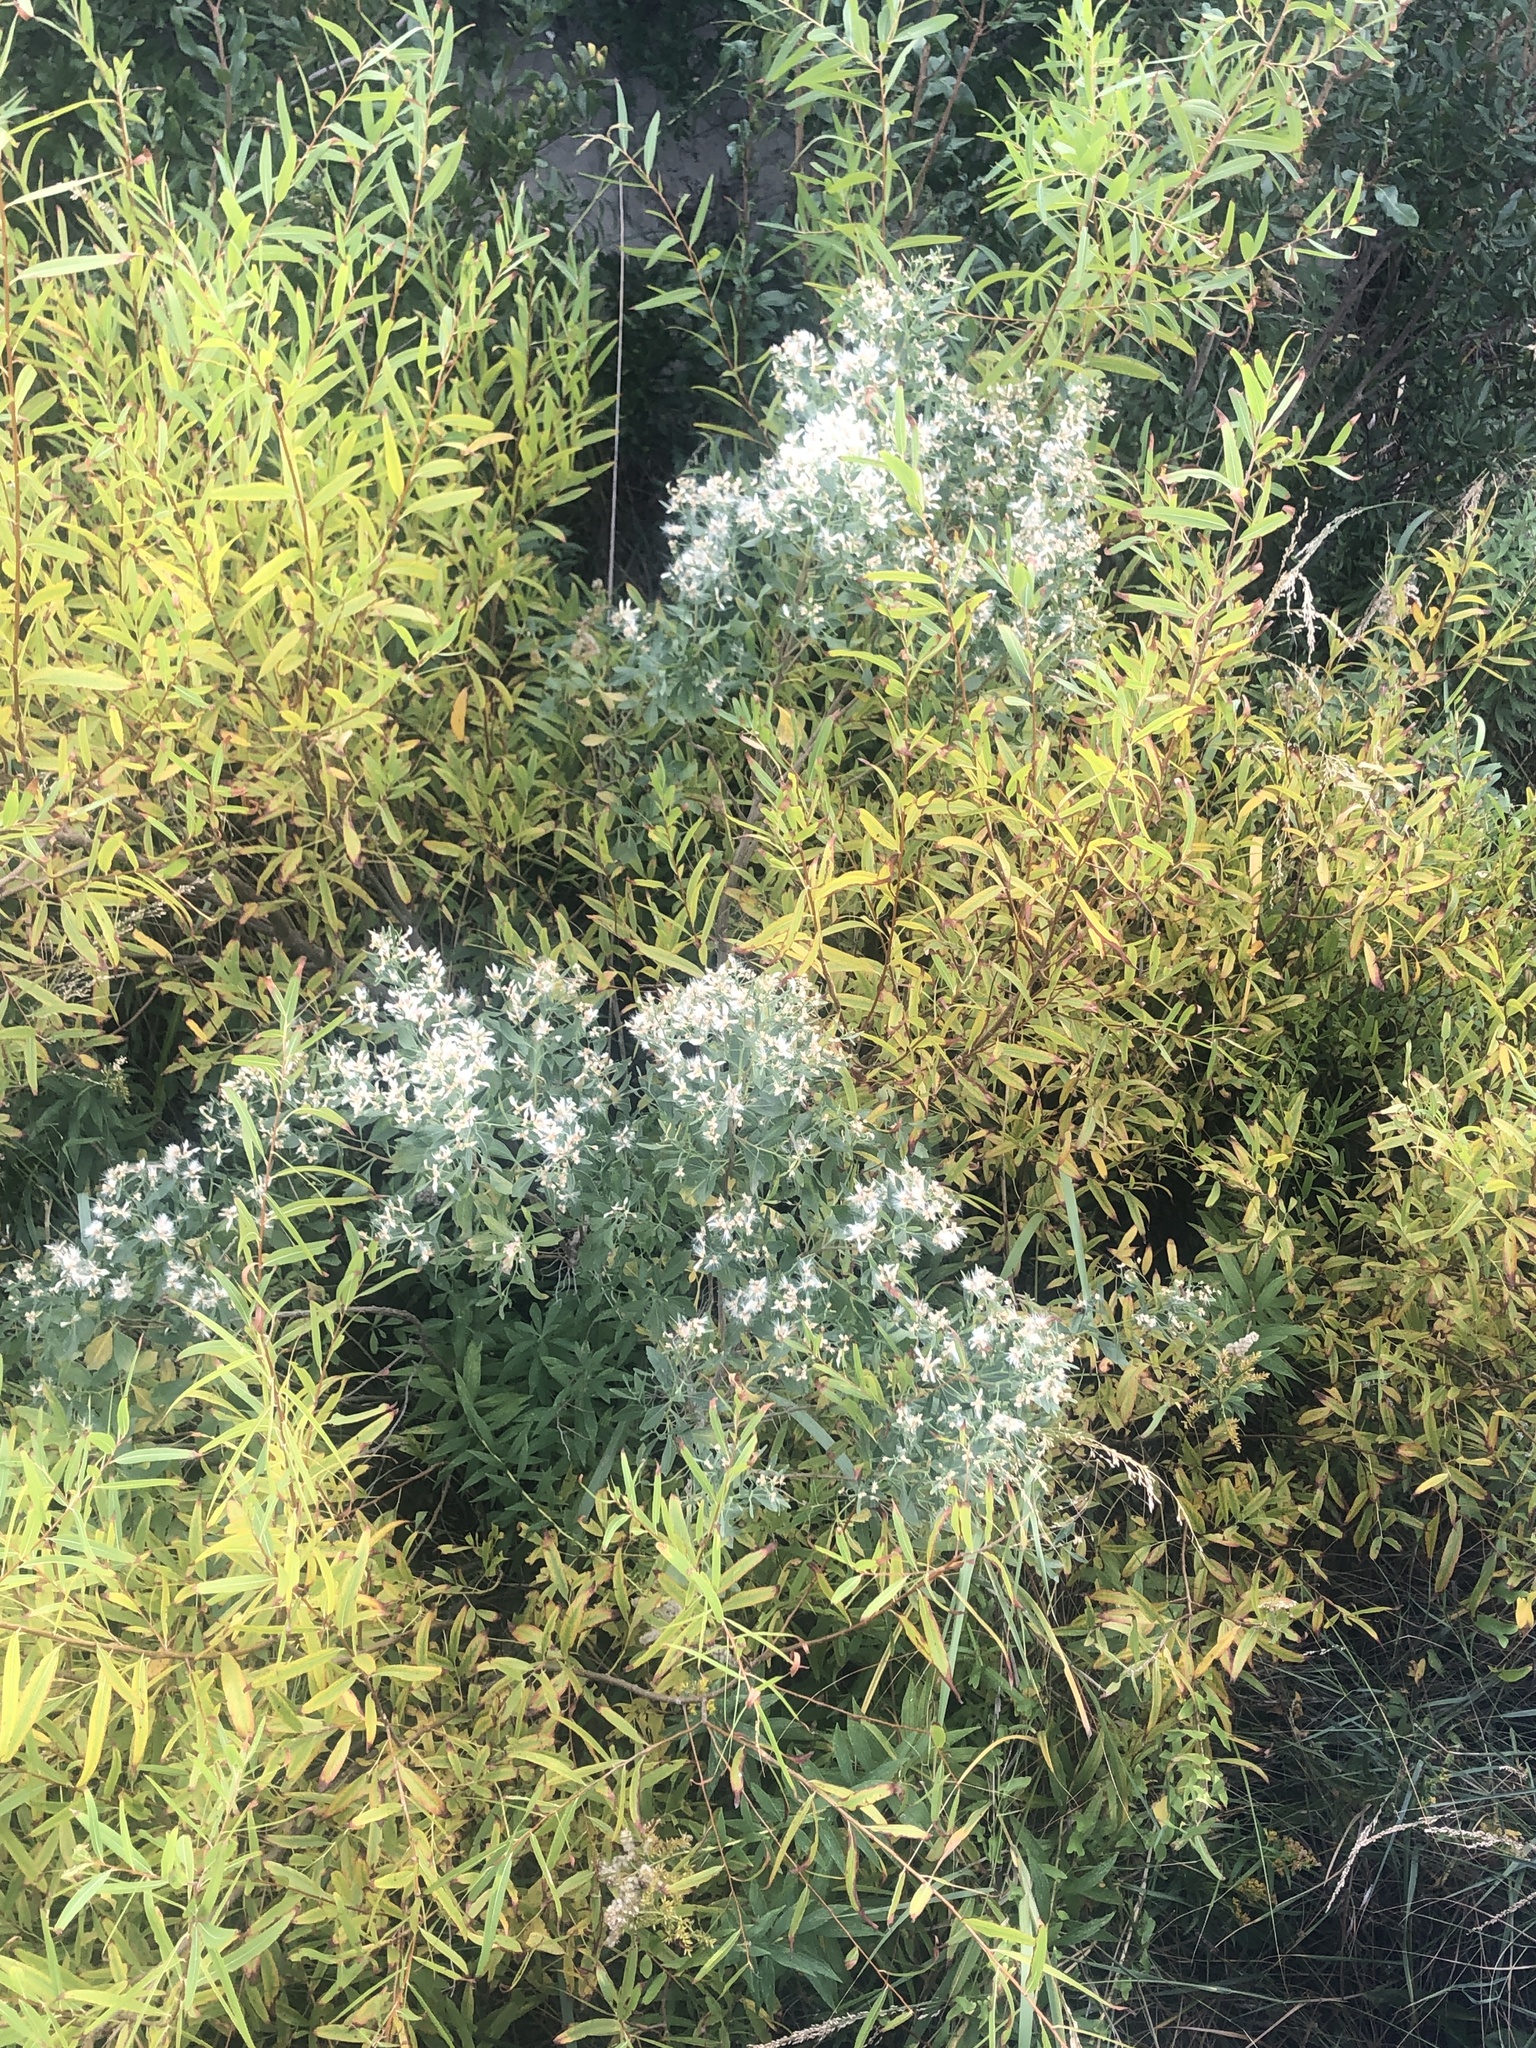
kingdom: Plantae
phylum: Tracheophyta
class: Magnoliopsida
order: Asterales
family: Asteraceae
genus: Baccharis
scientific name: Baccharis halimifolia
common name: Eastern baccharis
